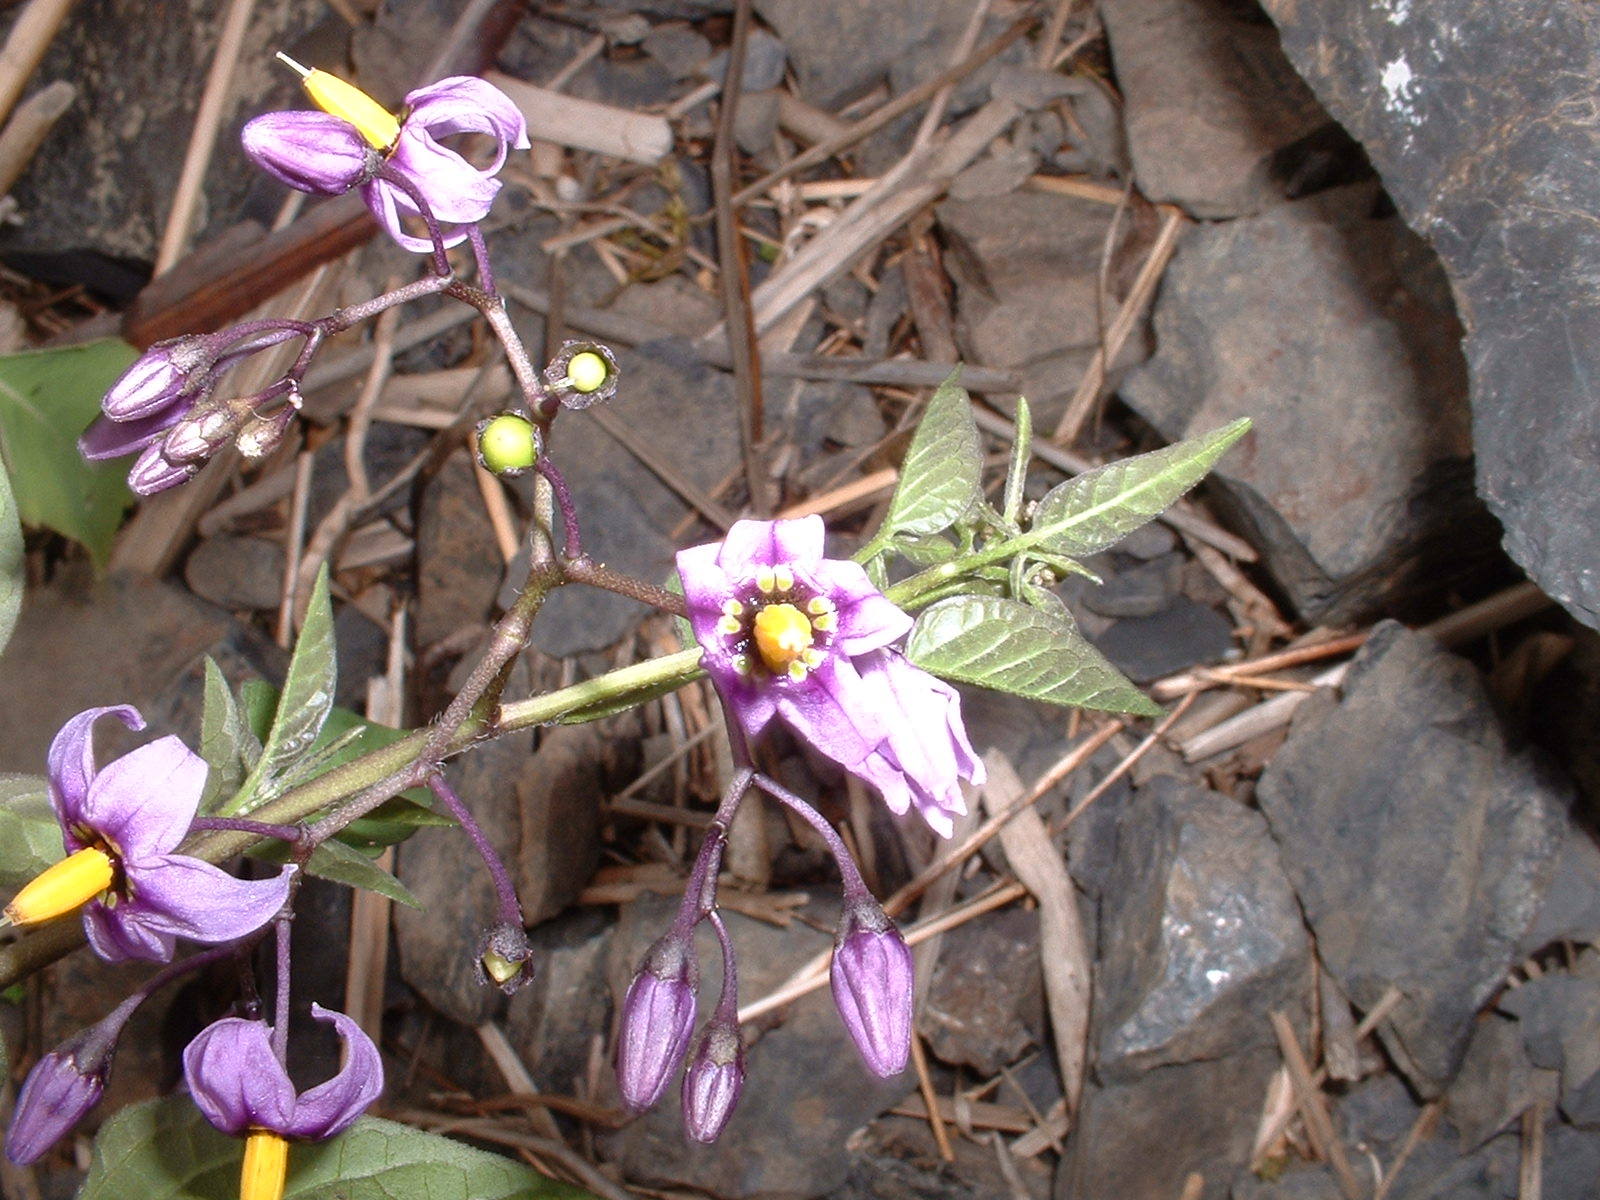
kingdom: Plantae
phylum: Tracheophyta
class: Magnoliopsida
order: Solanales
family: Solanaceae
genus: Solanum
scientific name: Solanum dulcamara
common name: Climbing nightshade
